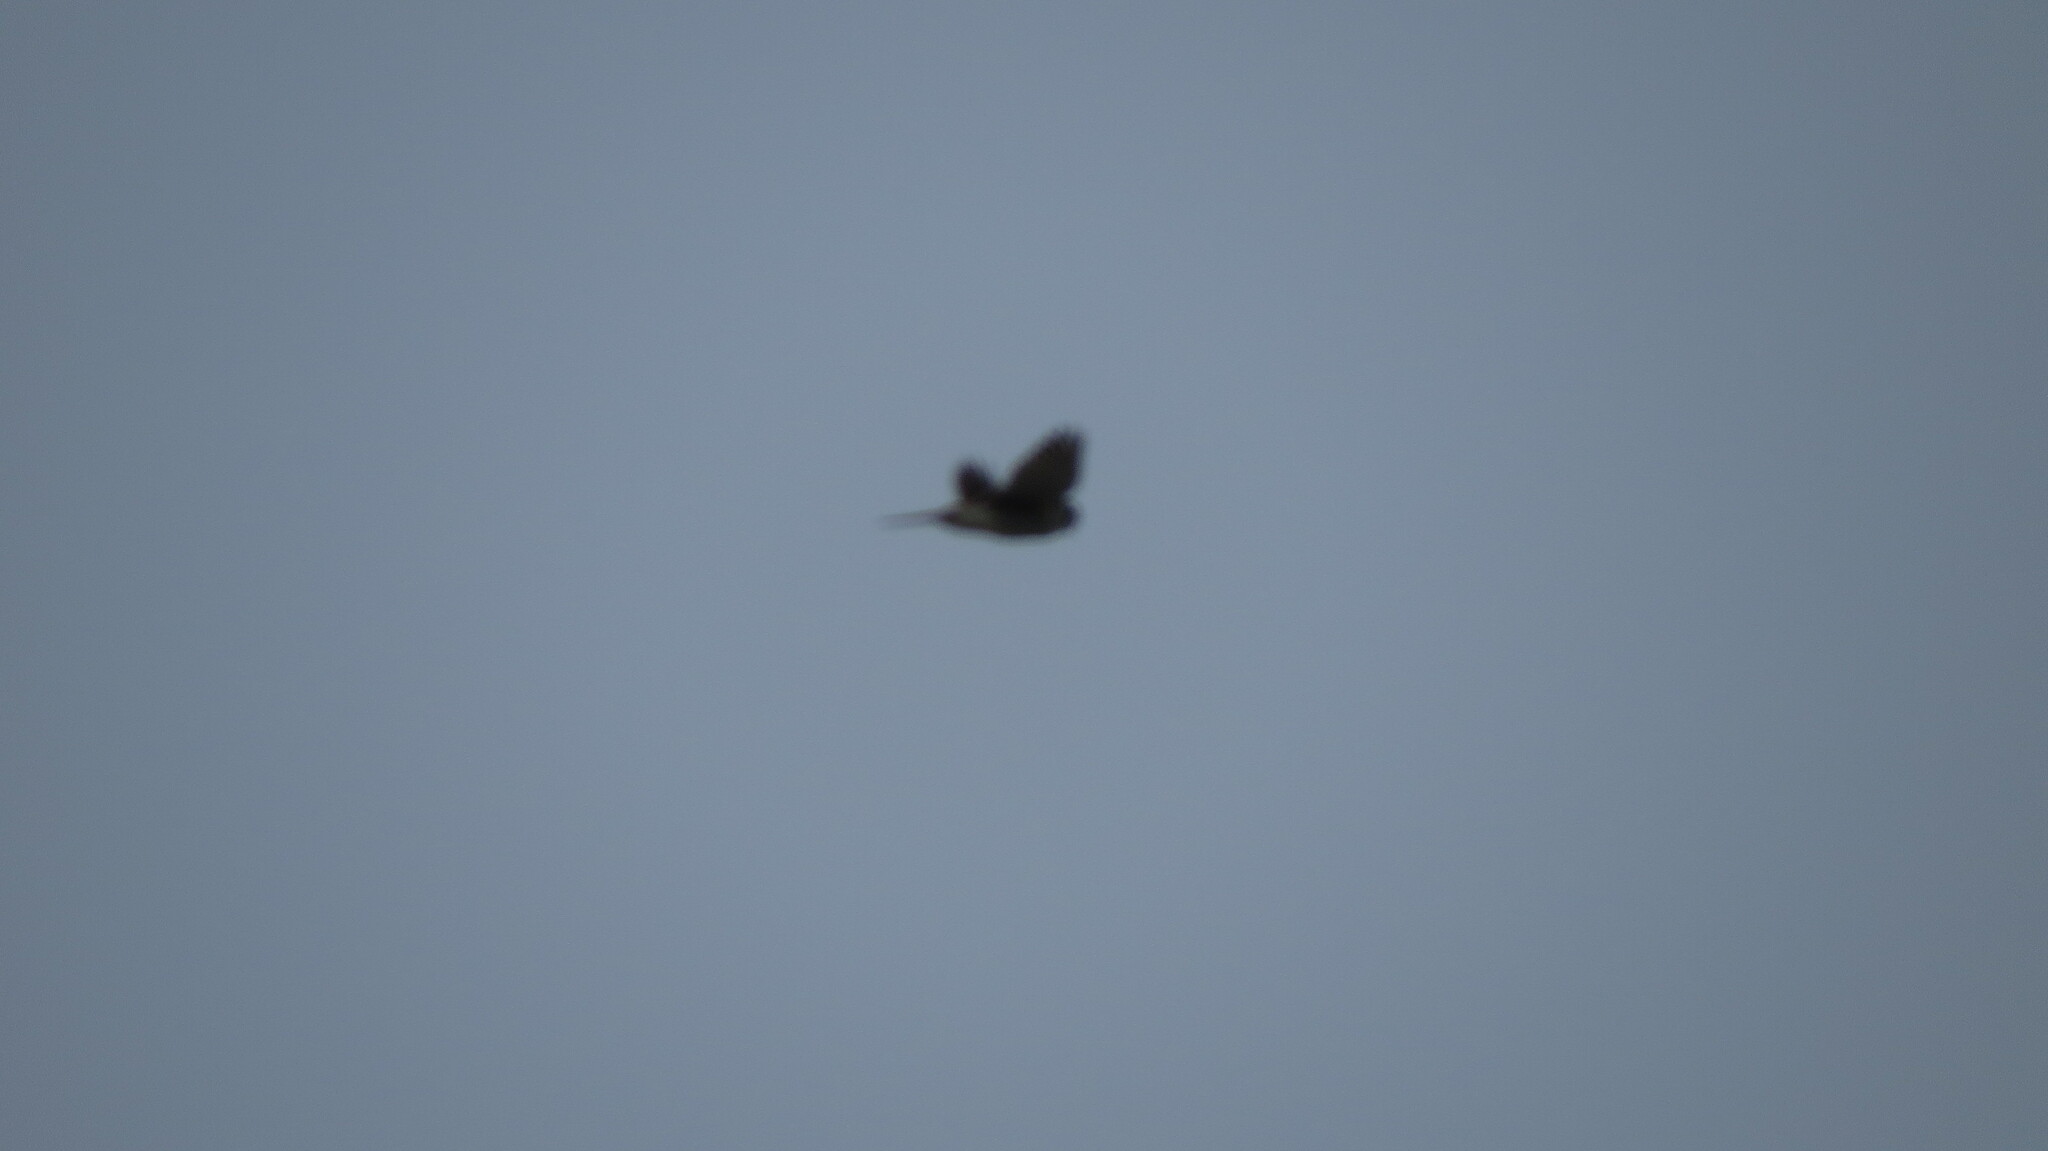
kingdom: Animalia
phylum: Chordata
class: Aves
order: Falconiformes
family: Falconidae
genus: Falco
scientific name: Falco sparverius
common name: American kestrel
